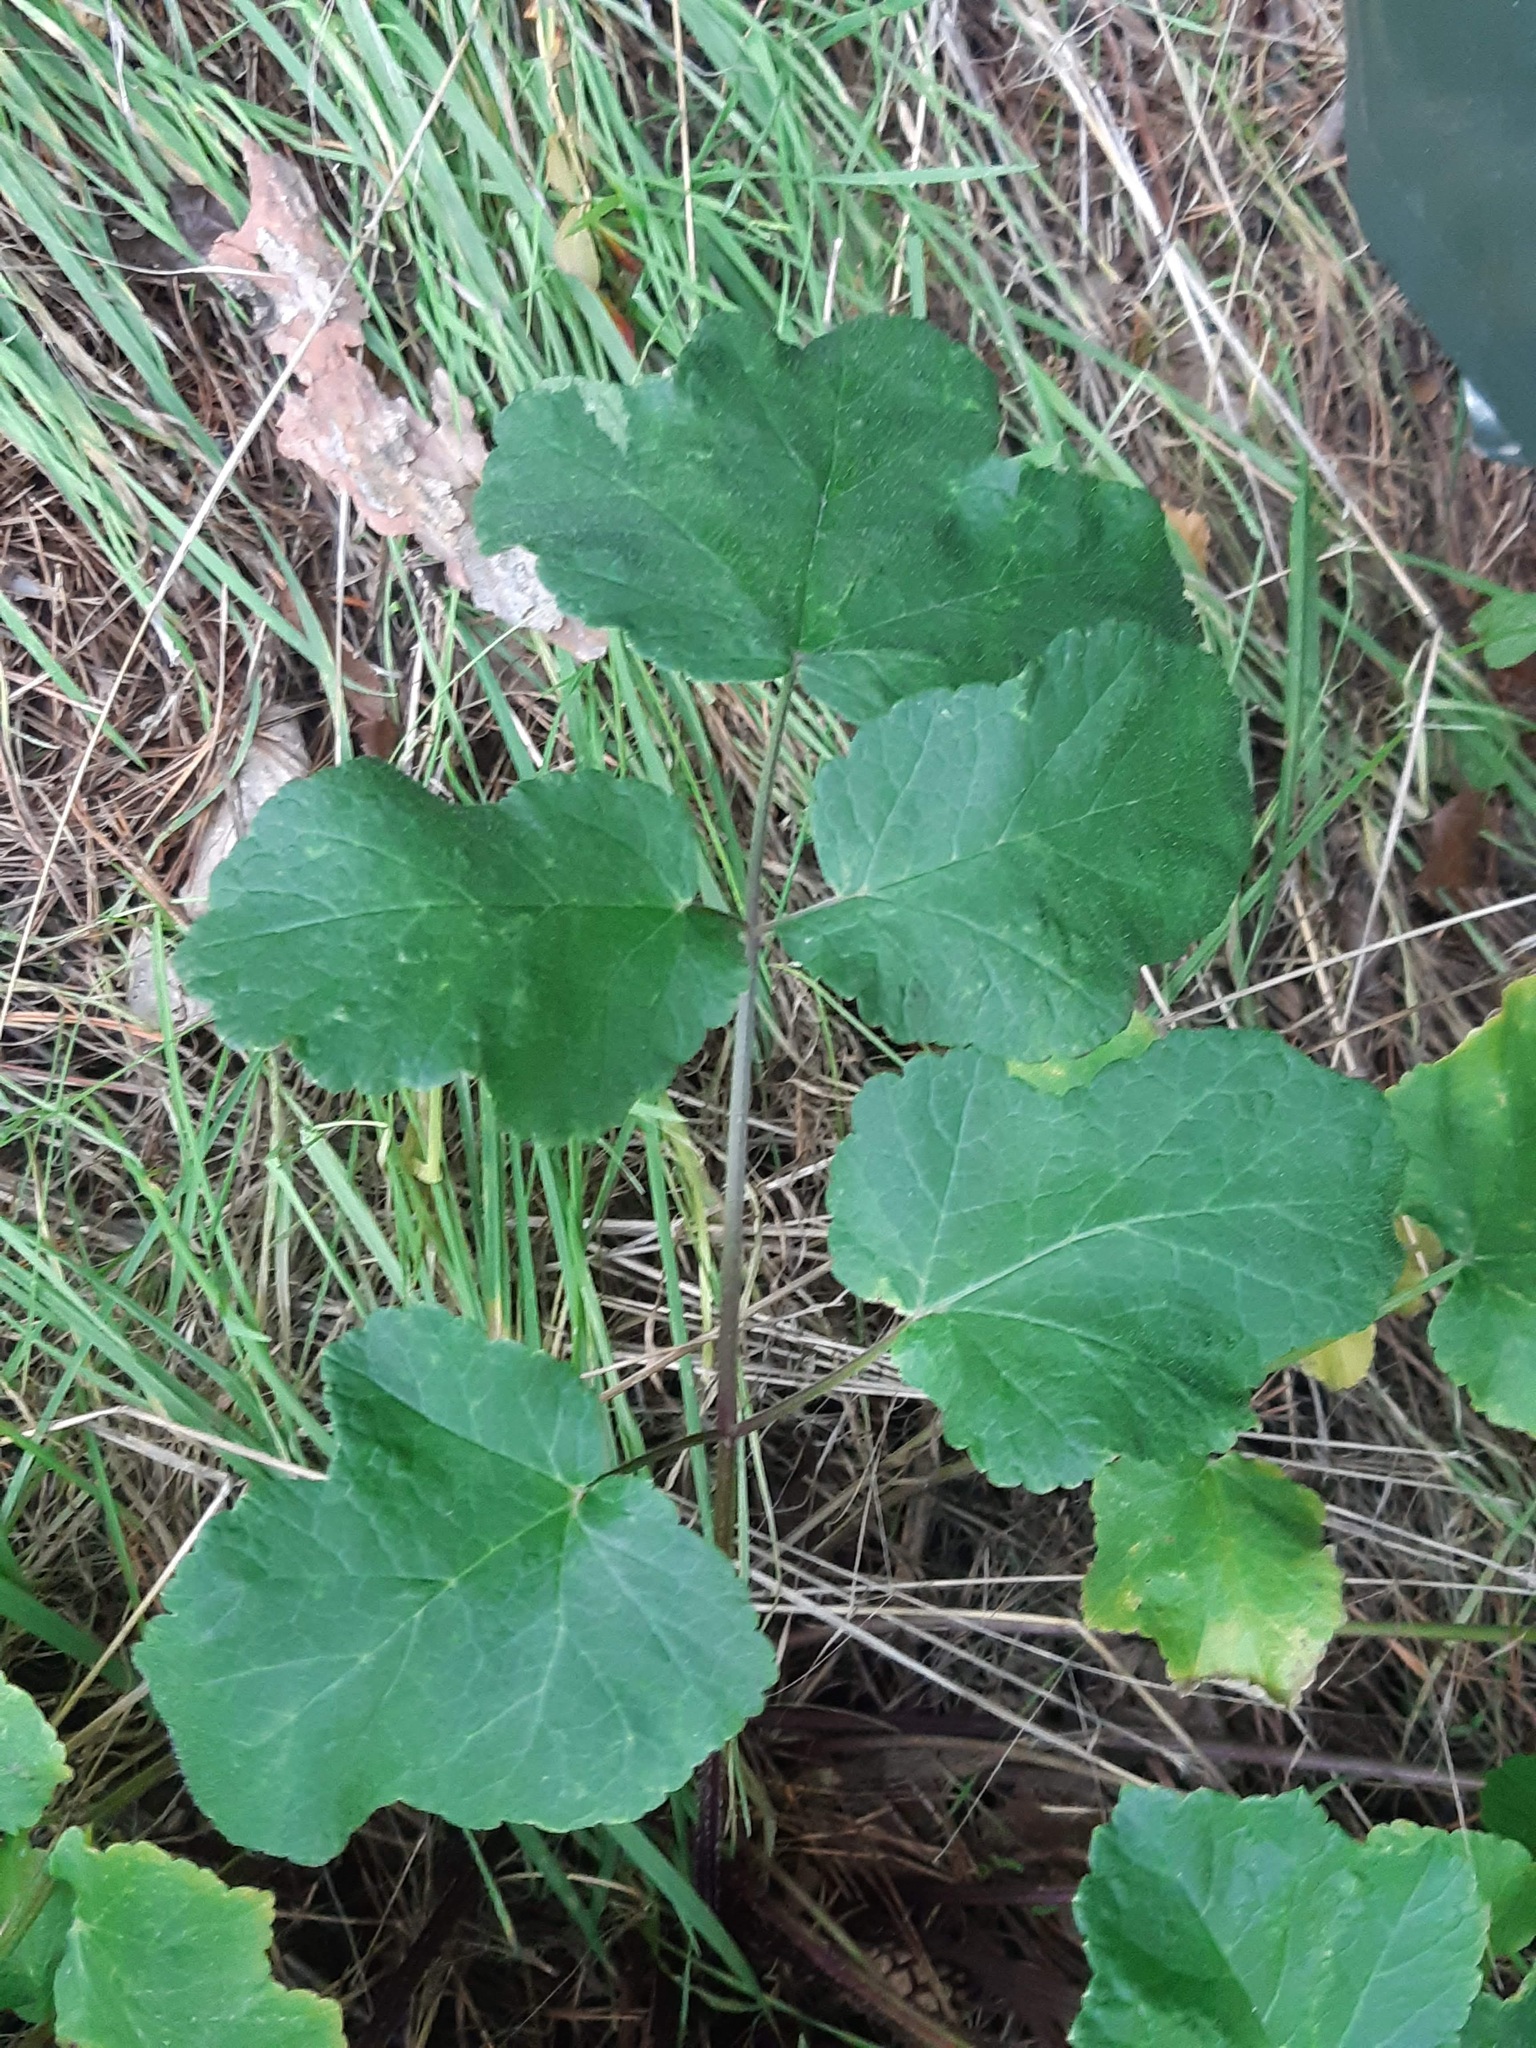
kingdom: Plantae
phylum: Tracheophyta
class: Magnoliopsida
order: Apiales
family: Apiaceae
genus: Heracleum
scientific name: Heracleum sphondylium
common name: Hogweed
